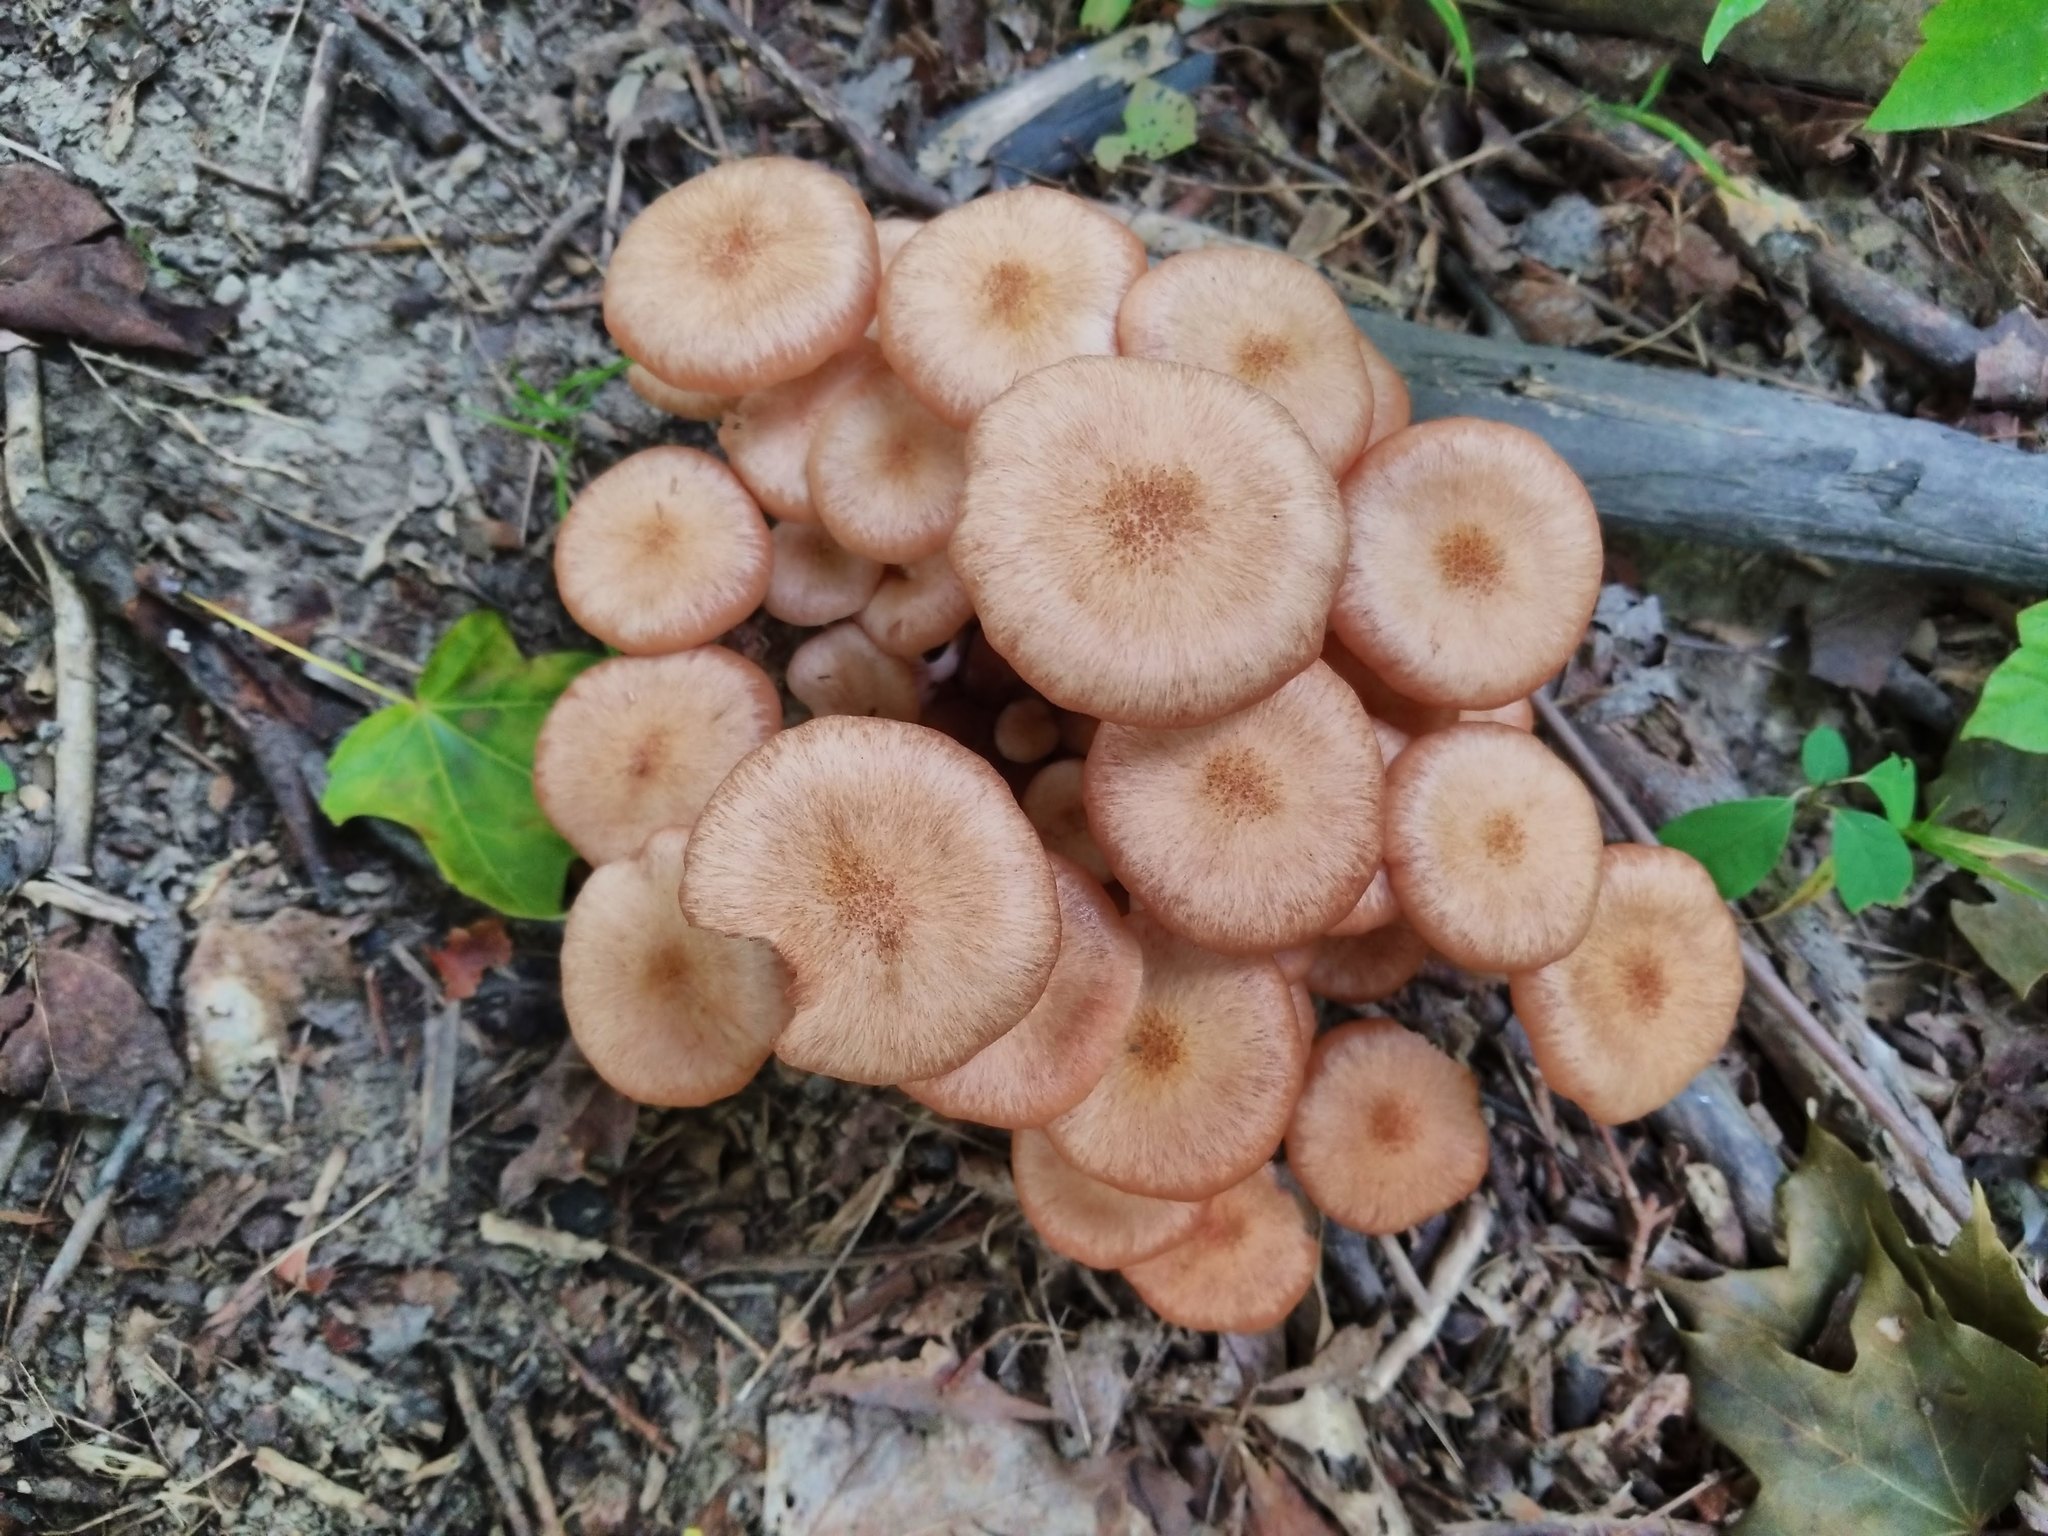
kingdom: Fungi
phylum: Basidiomycota
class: Agaricomycetes
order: Agaricales
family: Physalacriaceae
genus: Desarmillaria
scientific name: Desarmillaria caespitosa
